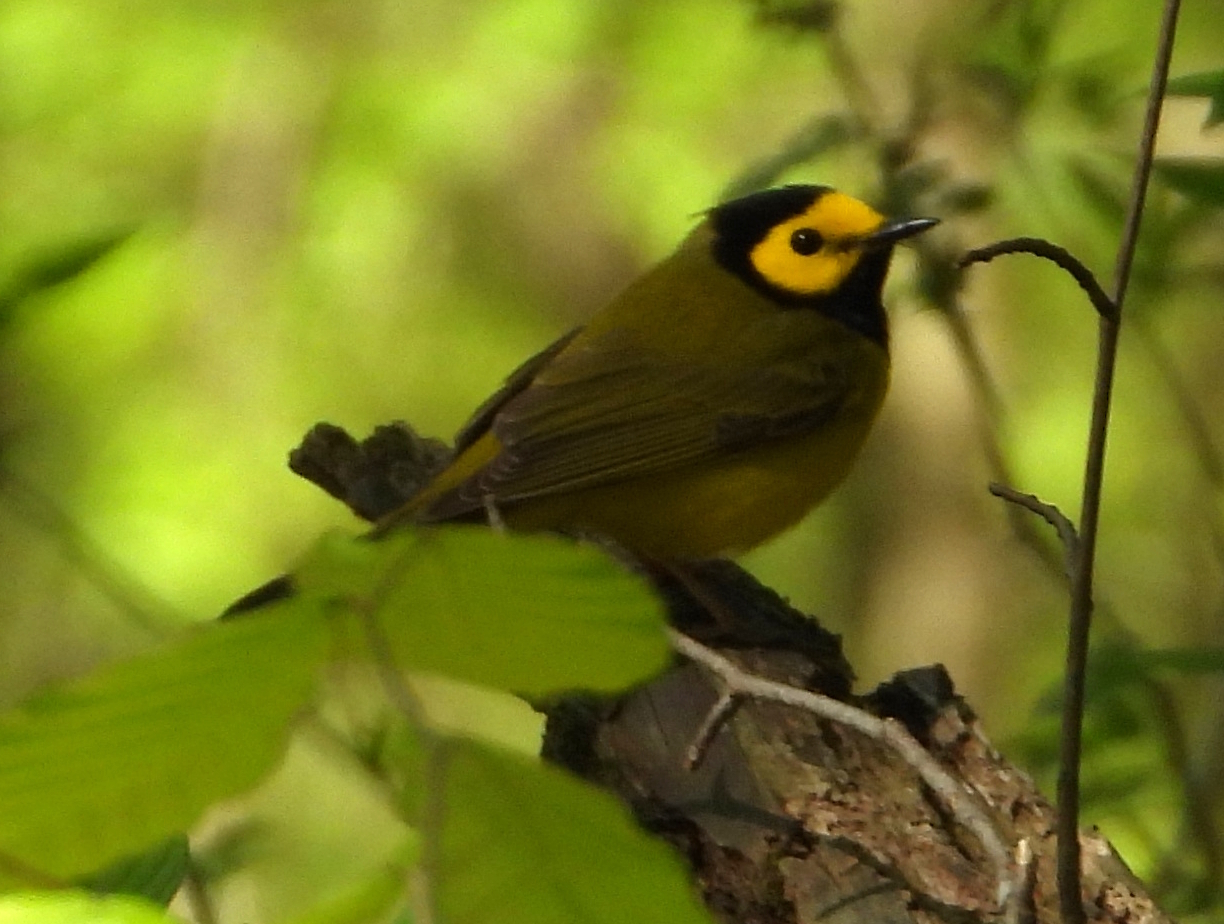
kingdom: Animalia
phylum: Chordata
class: Aves
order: Passeriformes
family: Parulidae
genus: Setophaga
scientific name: Setophaga citrina
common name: Hooded warbler
